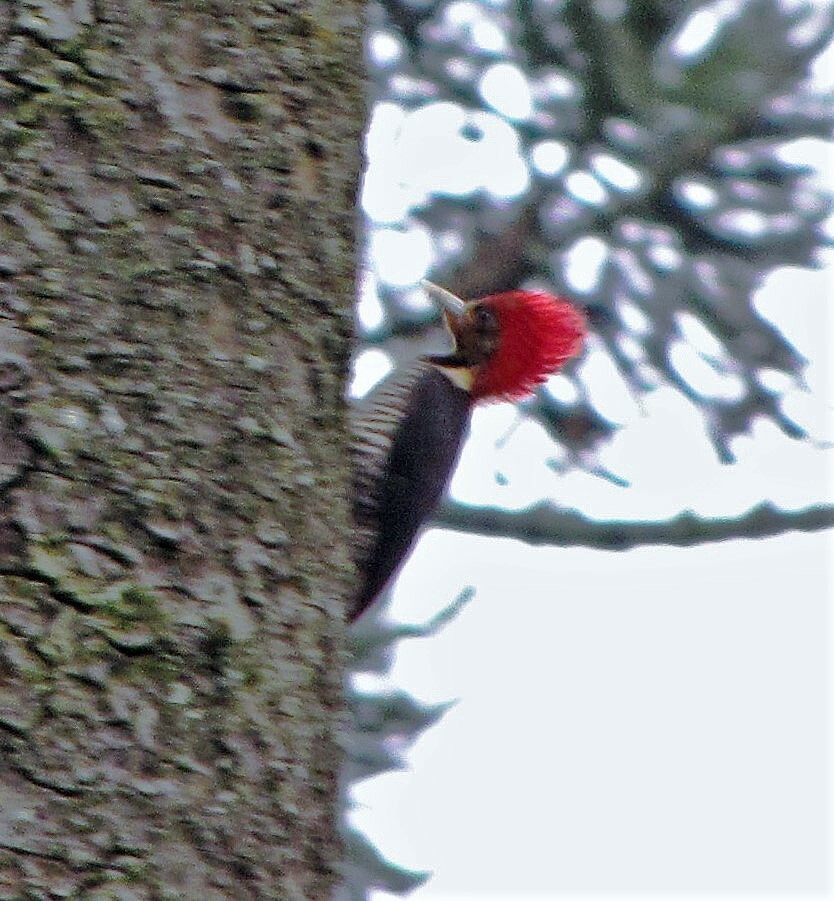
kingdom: Animalia
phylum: Chordata
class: Aves
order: Piciformes
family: Picidae
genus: Celeus
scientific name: Celeus galeatus
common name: Helmeted woodpecker
